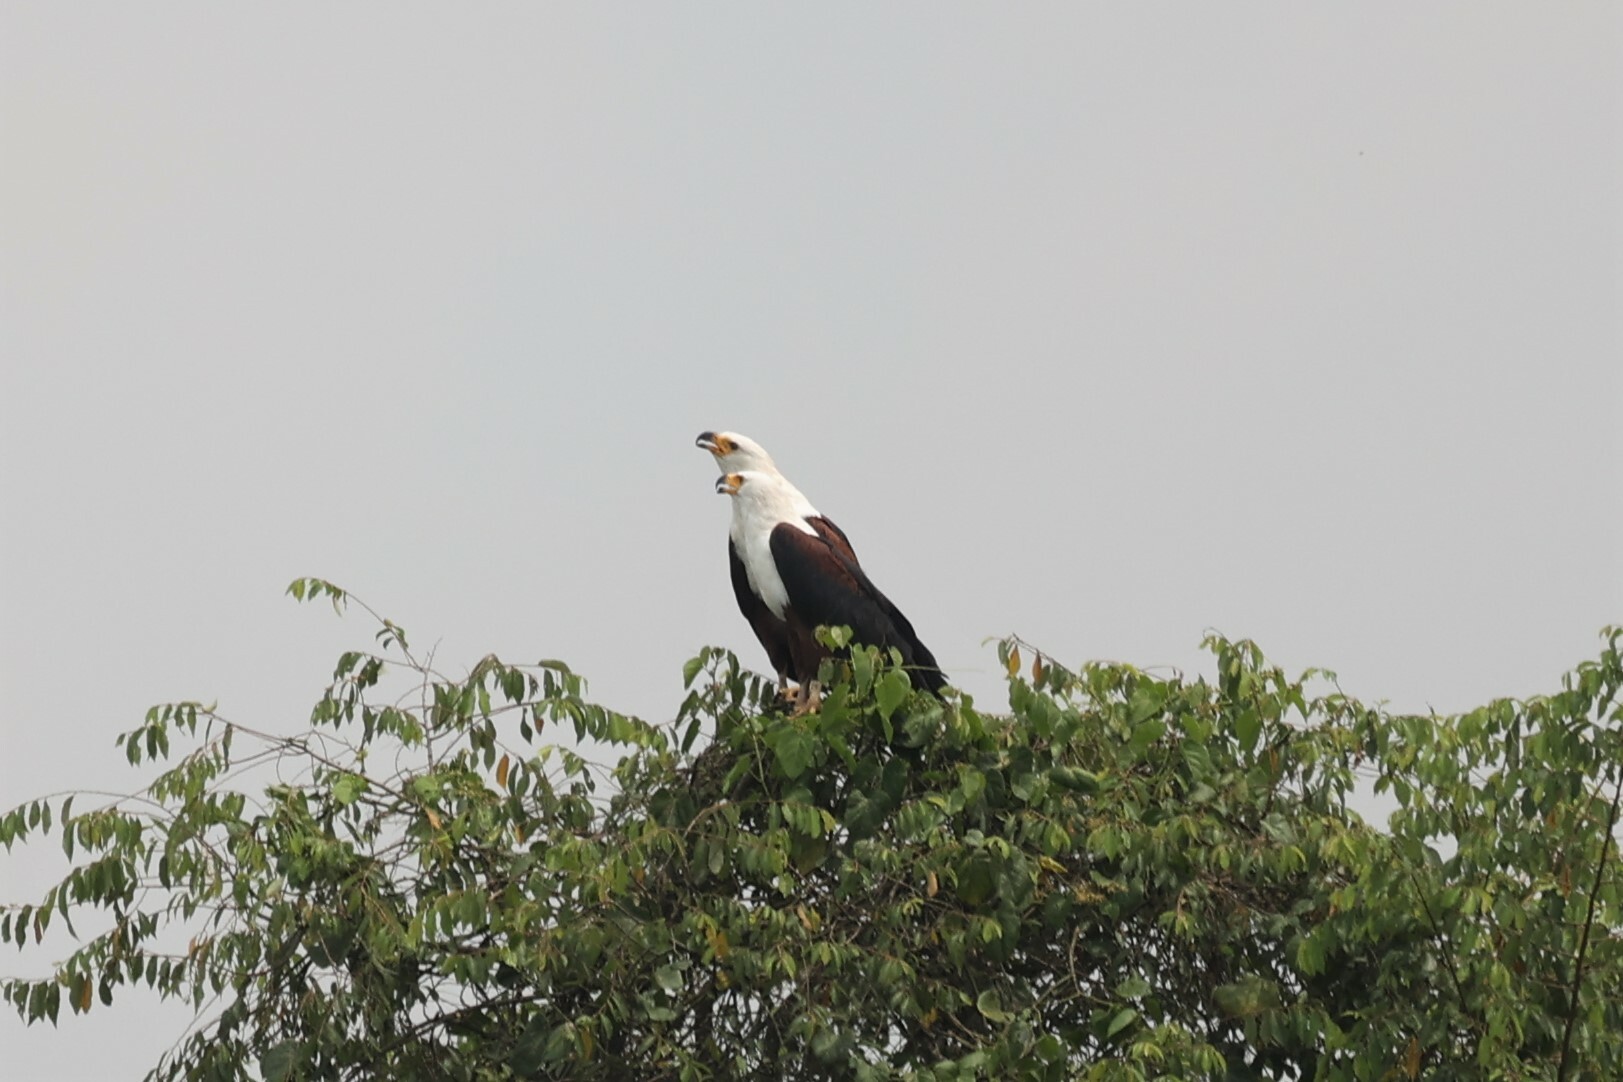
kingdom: Animalia
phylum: Chordata
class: Aves
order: Accipitriformes
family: Accipitridae
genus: Haliaeetus
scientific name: Haliaeetus vocifer
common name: African fish eagle
